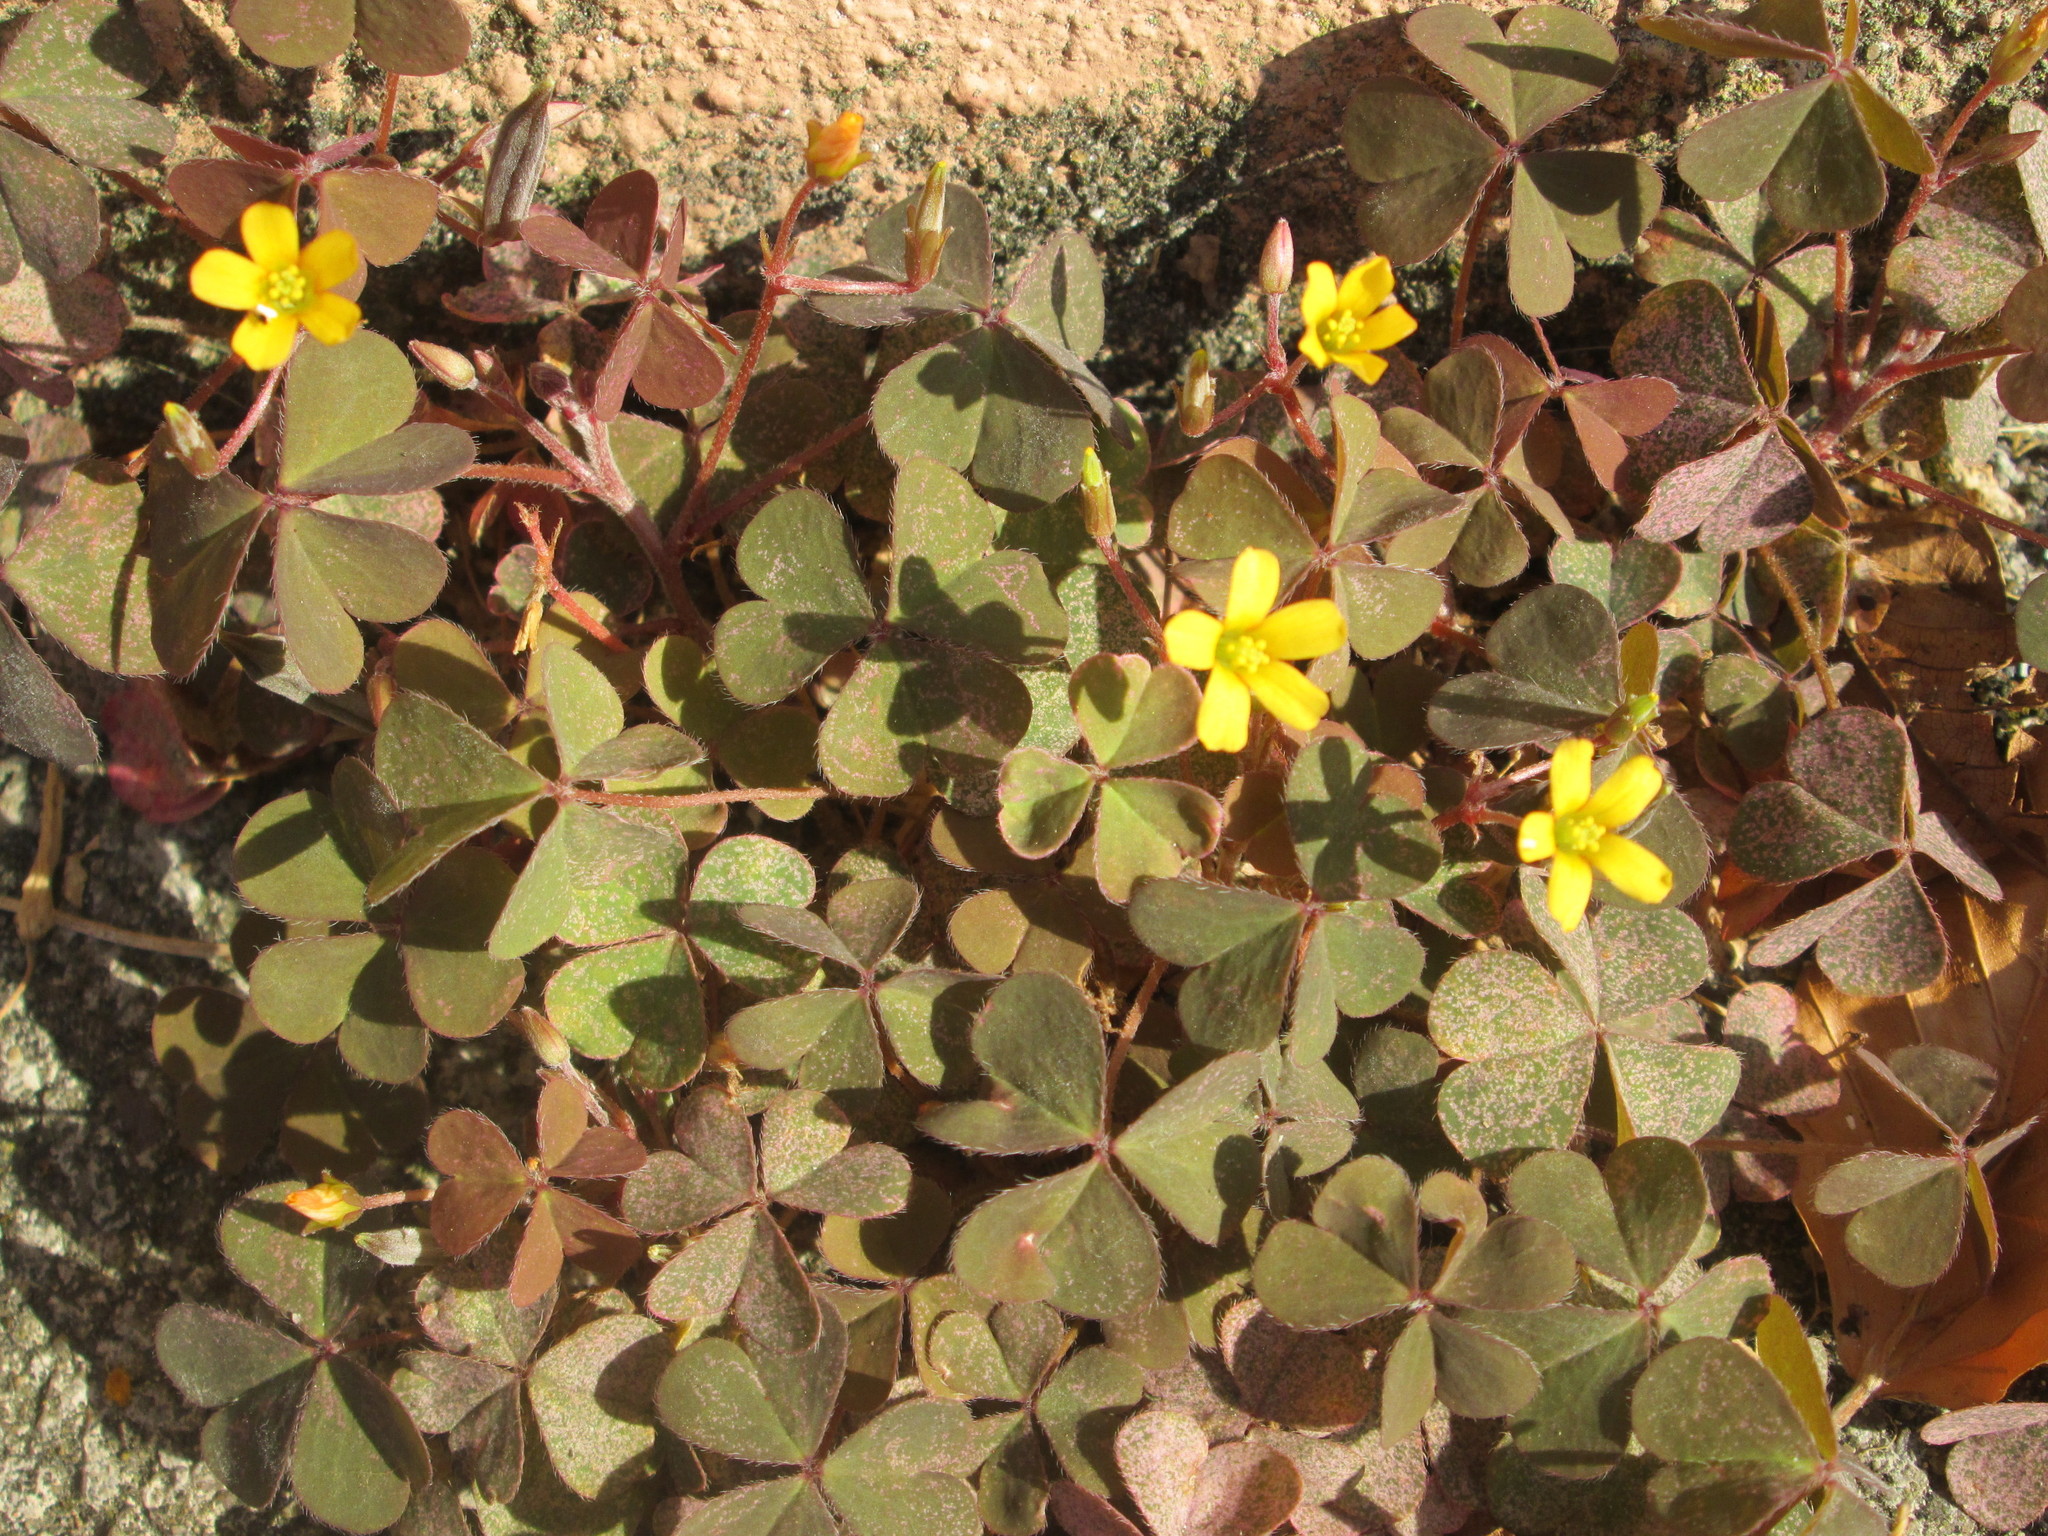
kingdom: Plantae
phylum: Tracheophyta
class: Magnoliopsida
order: Oxalidales
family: Oxalidaceae
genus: Oxalis
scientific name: Oxalis corniculata
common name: Procumbent yellow-sorrel
